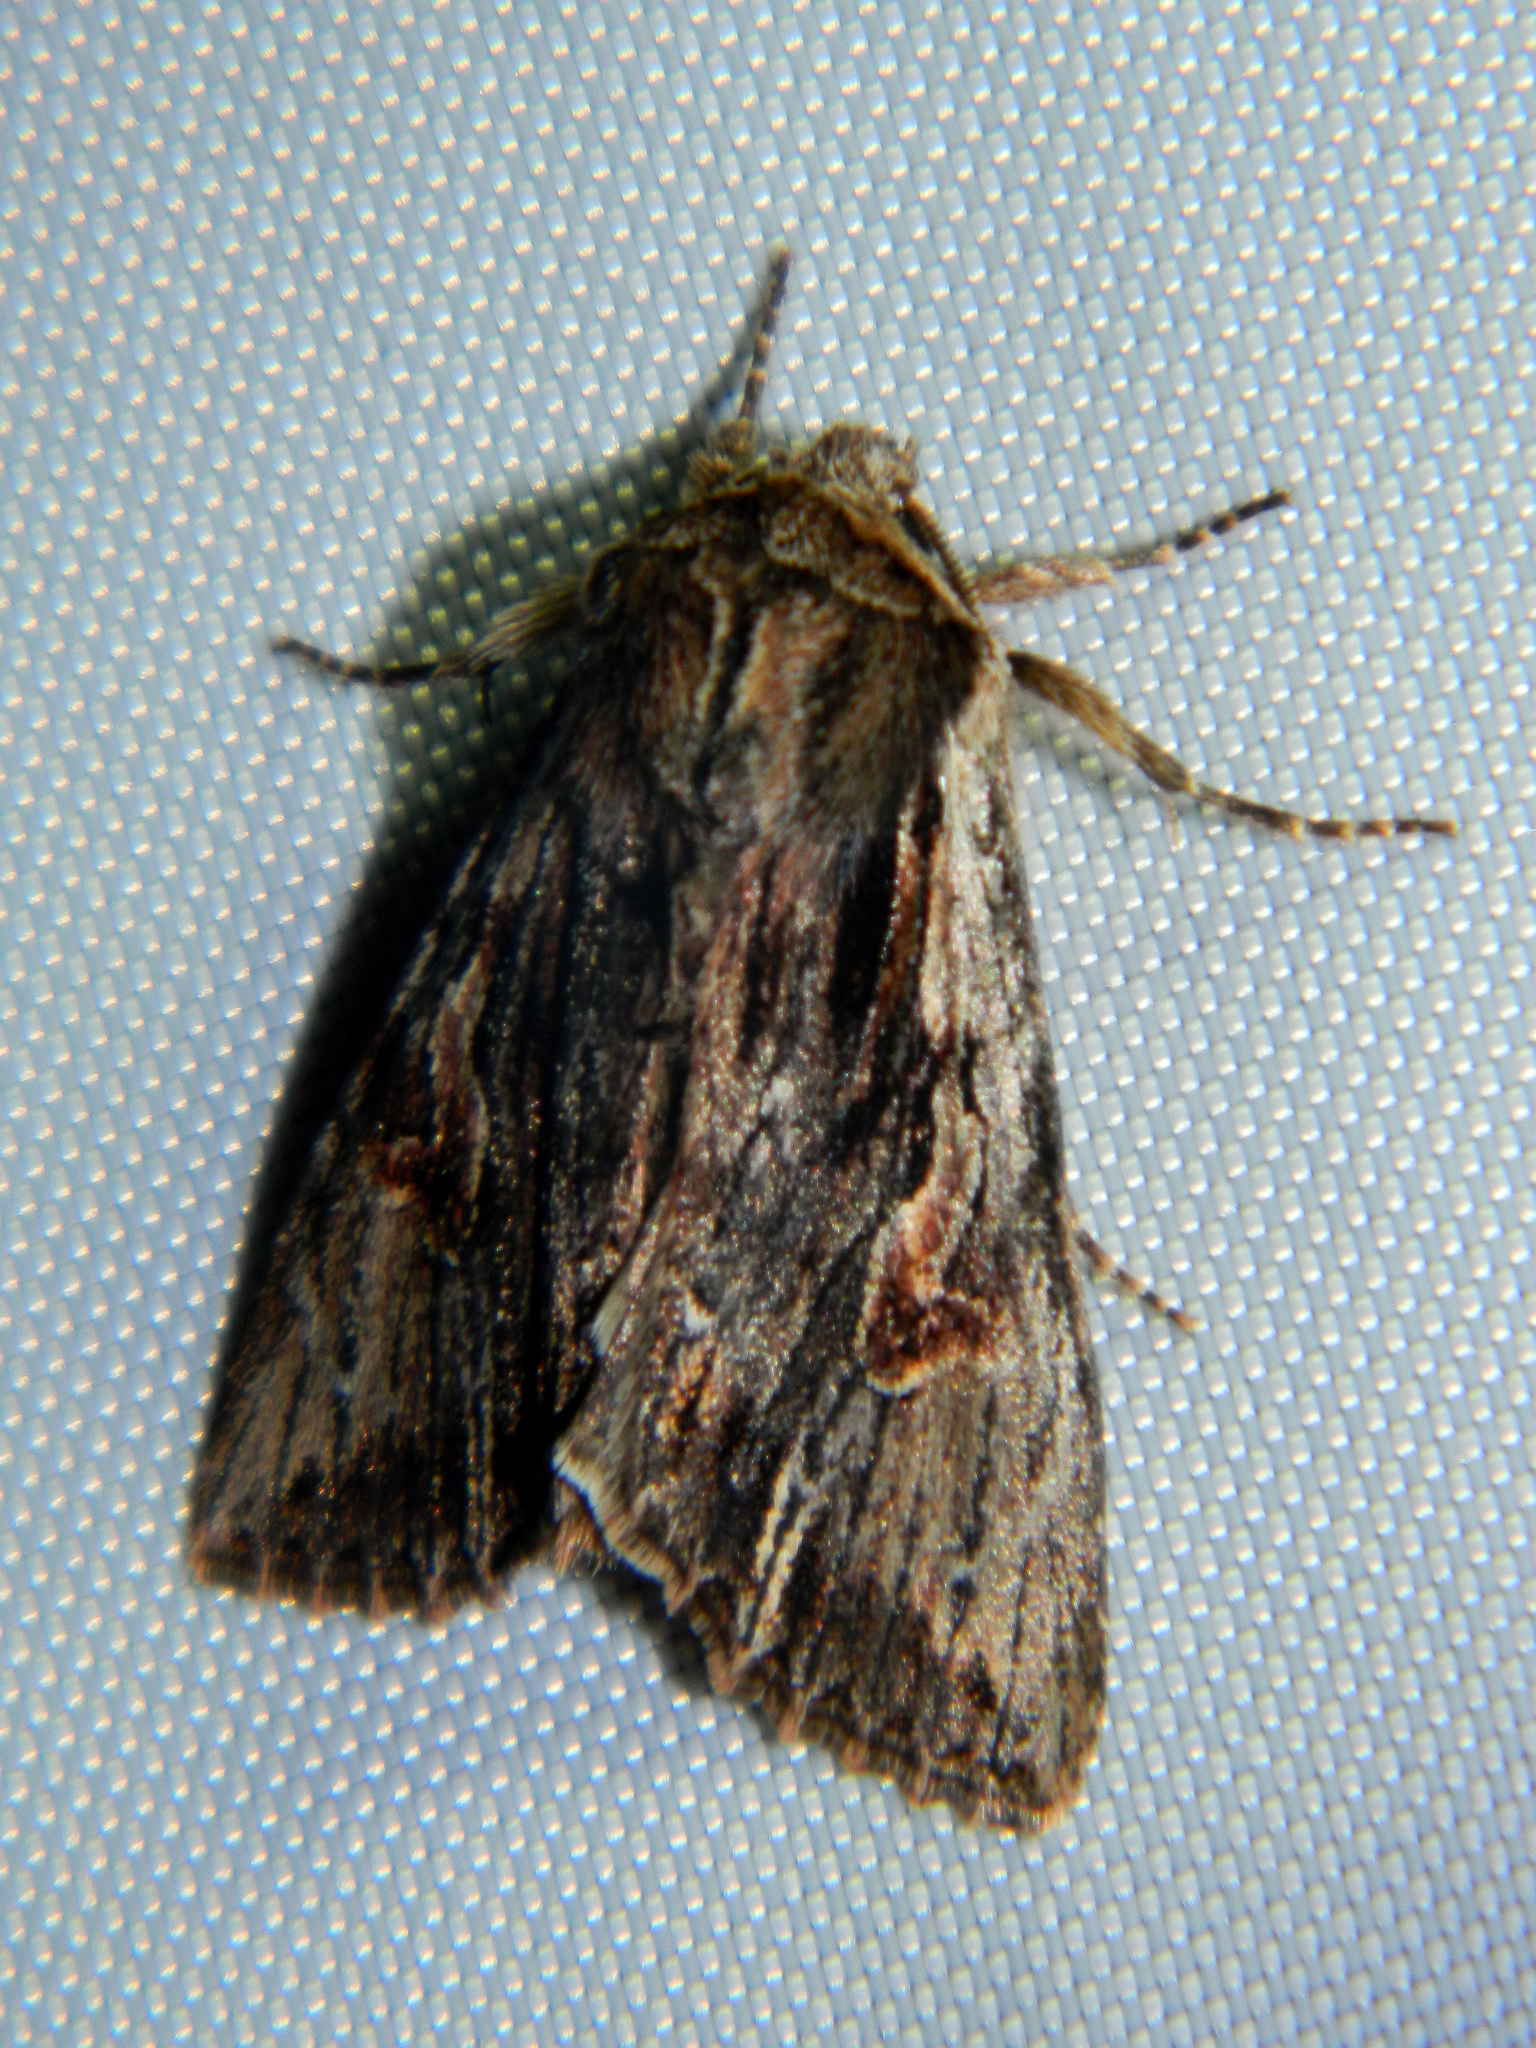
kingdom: Animalia
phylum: Arthropoda
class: Insecta
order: Lepidoptera
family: Noctuidae
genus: Achatia
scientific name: Achatia evicta
